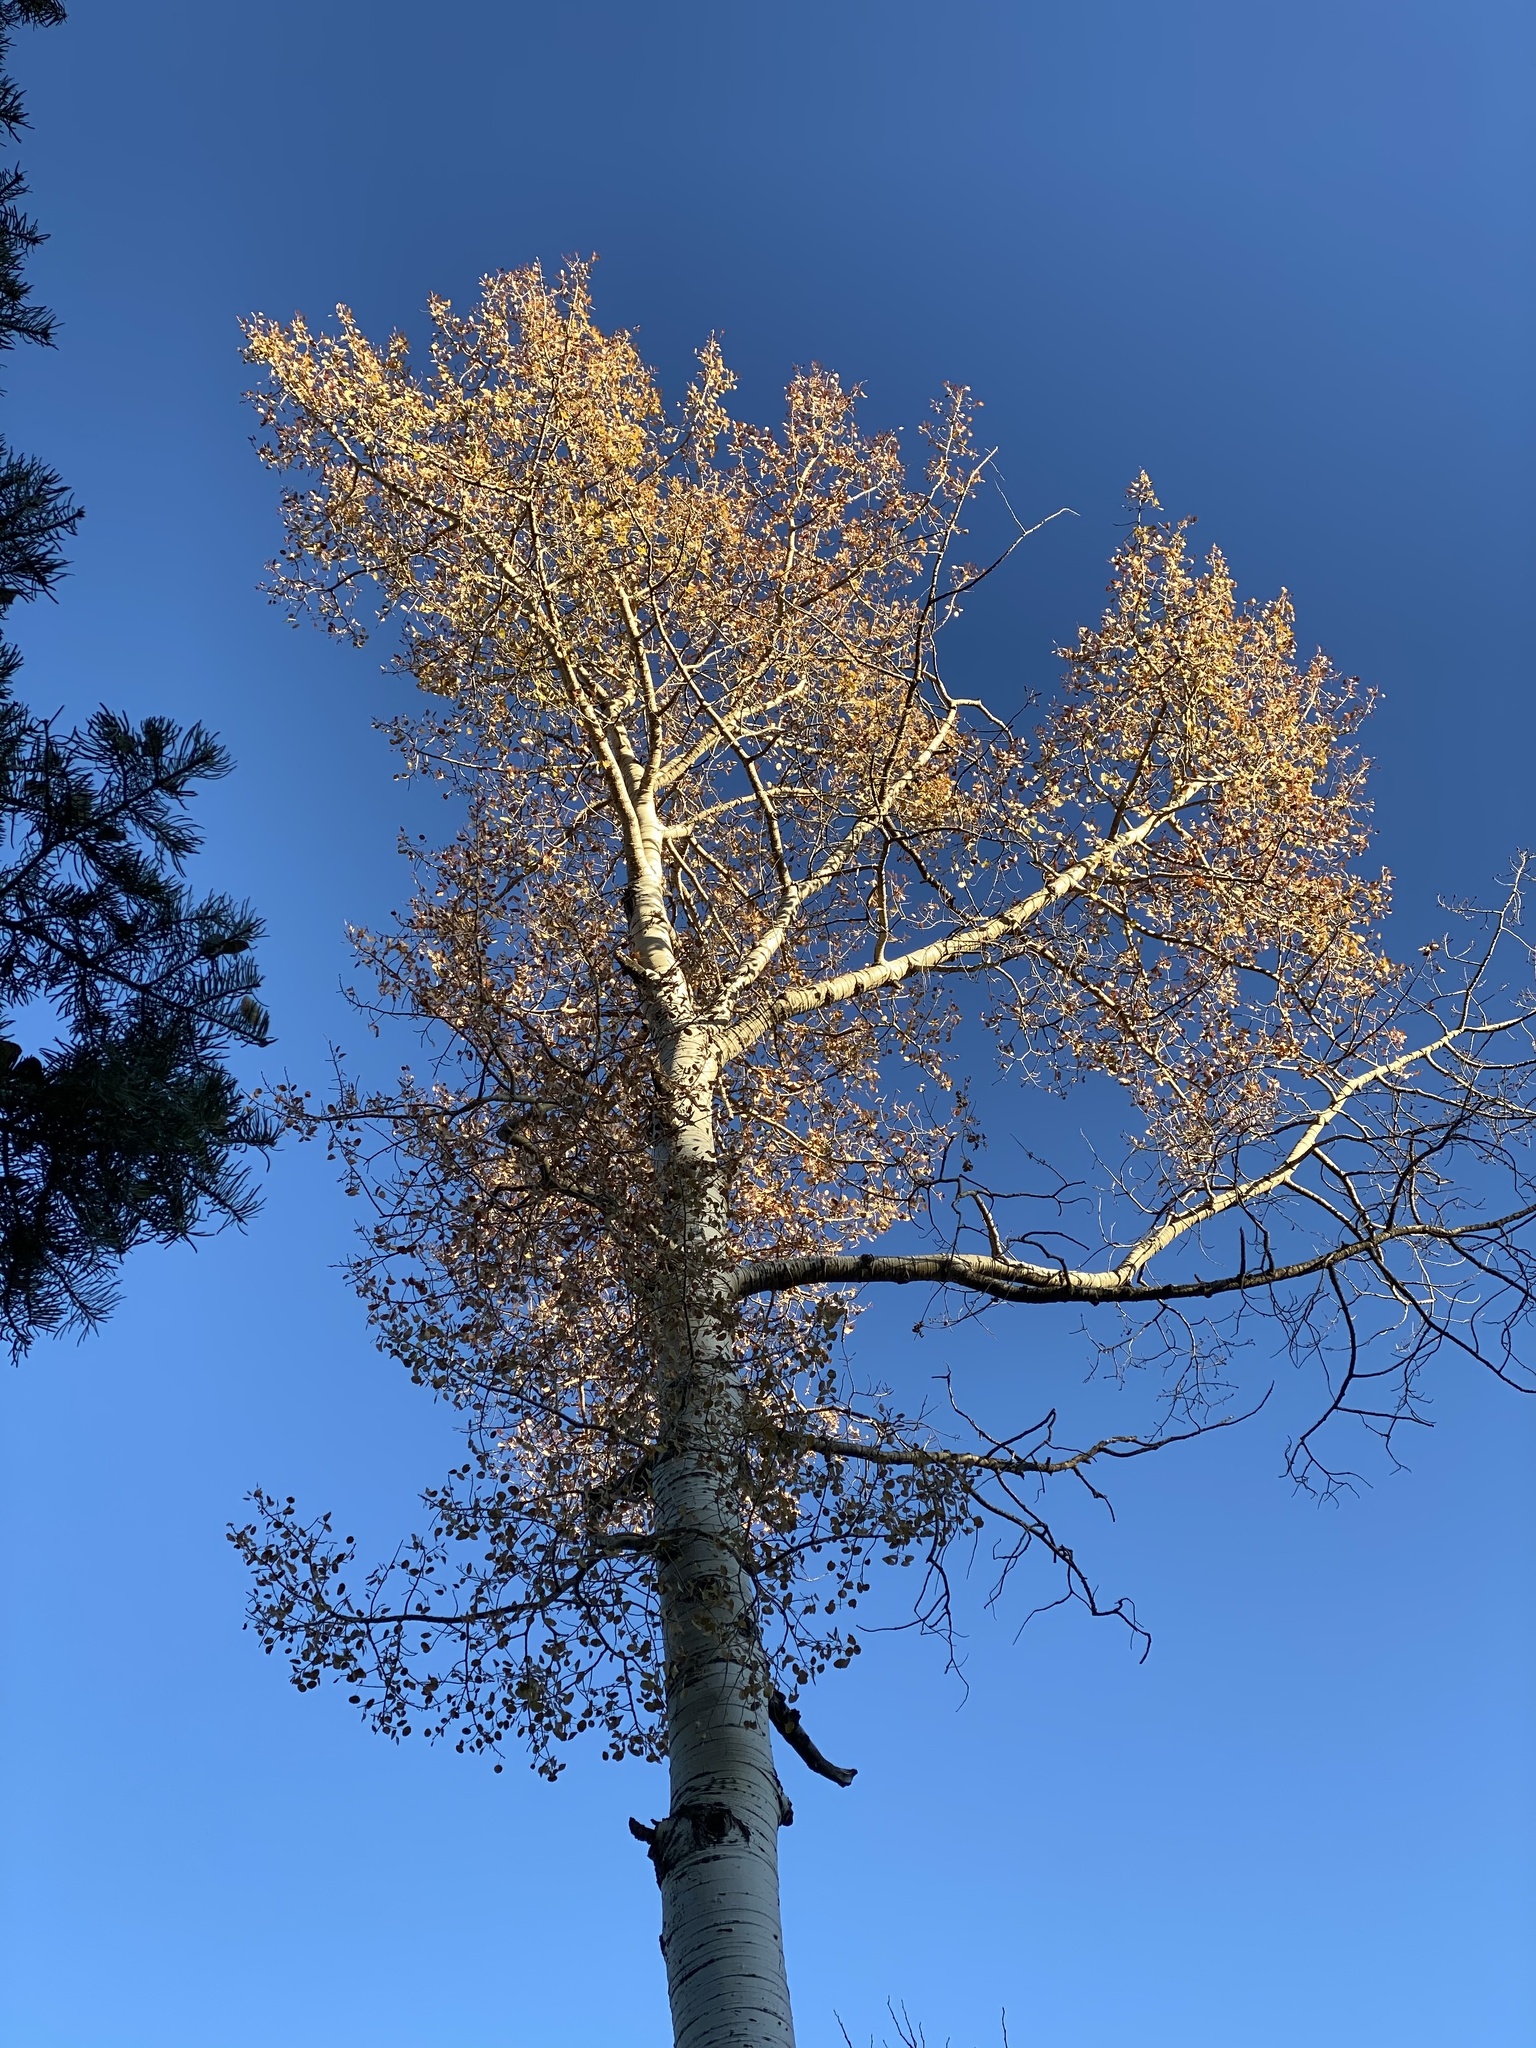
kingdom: Plantae
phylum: Tracheophyta
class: Magnoliopsida
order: Malpighiales
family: Salicaceae
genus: Populus
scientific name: Populus tremuloides
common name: Quaking aspen
